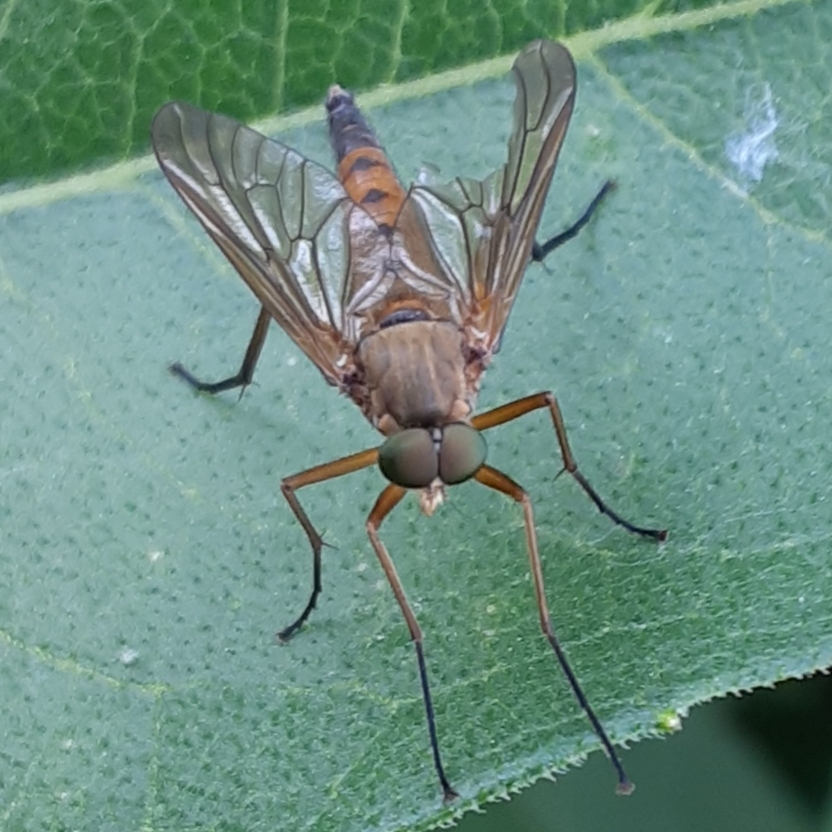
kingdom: Animalia
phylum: Arthropoda
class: Insecta
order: Diptera
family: Rhagionidae
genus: Rhagio
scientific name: Rhagio tringaria
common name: Marsh snipefly
